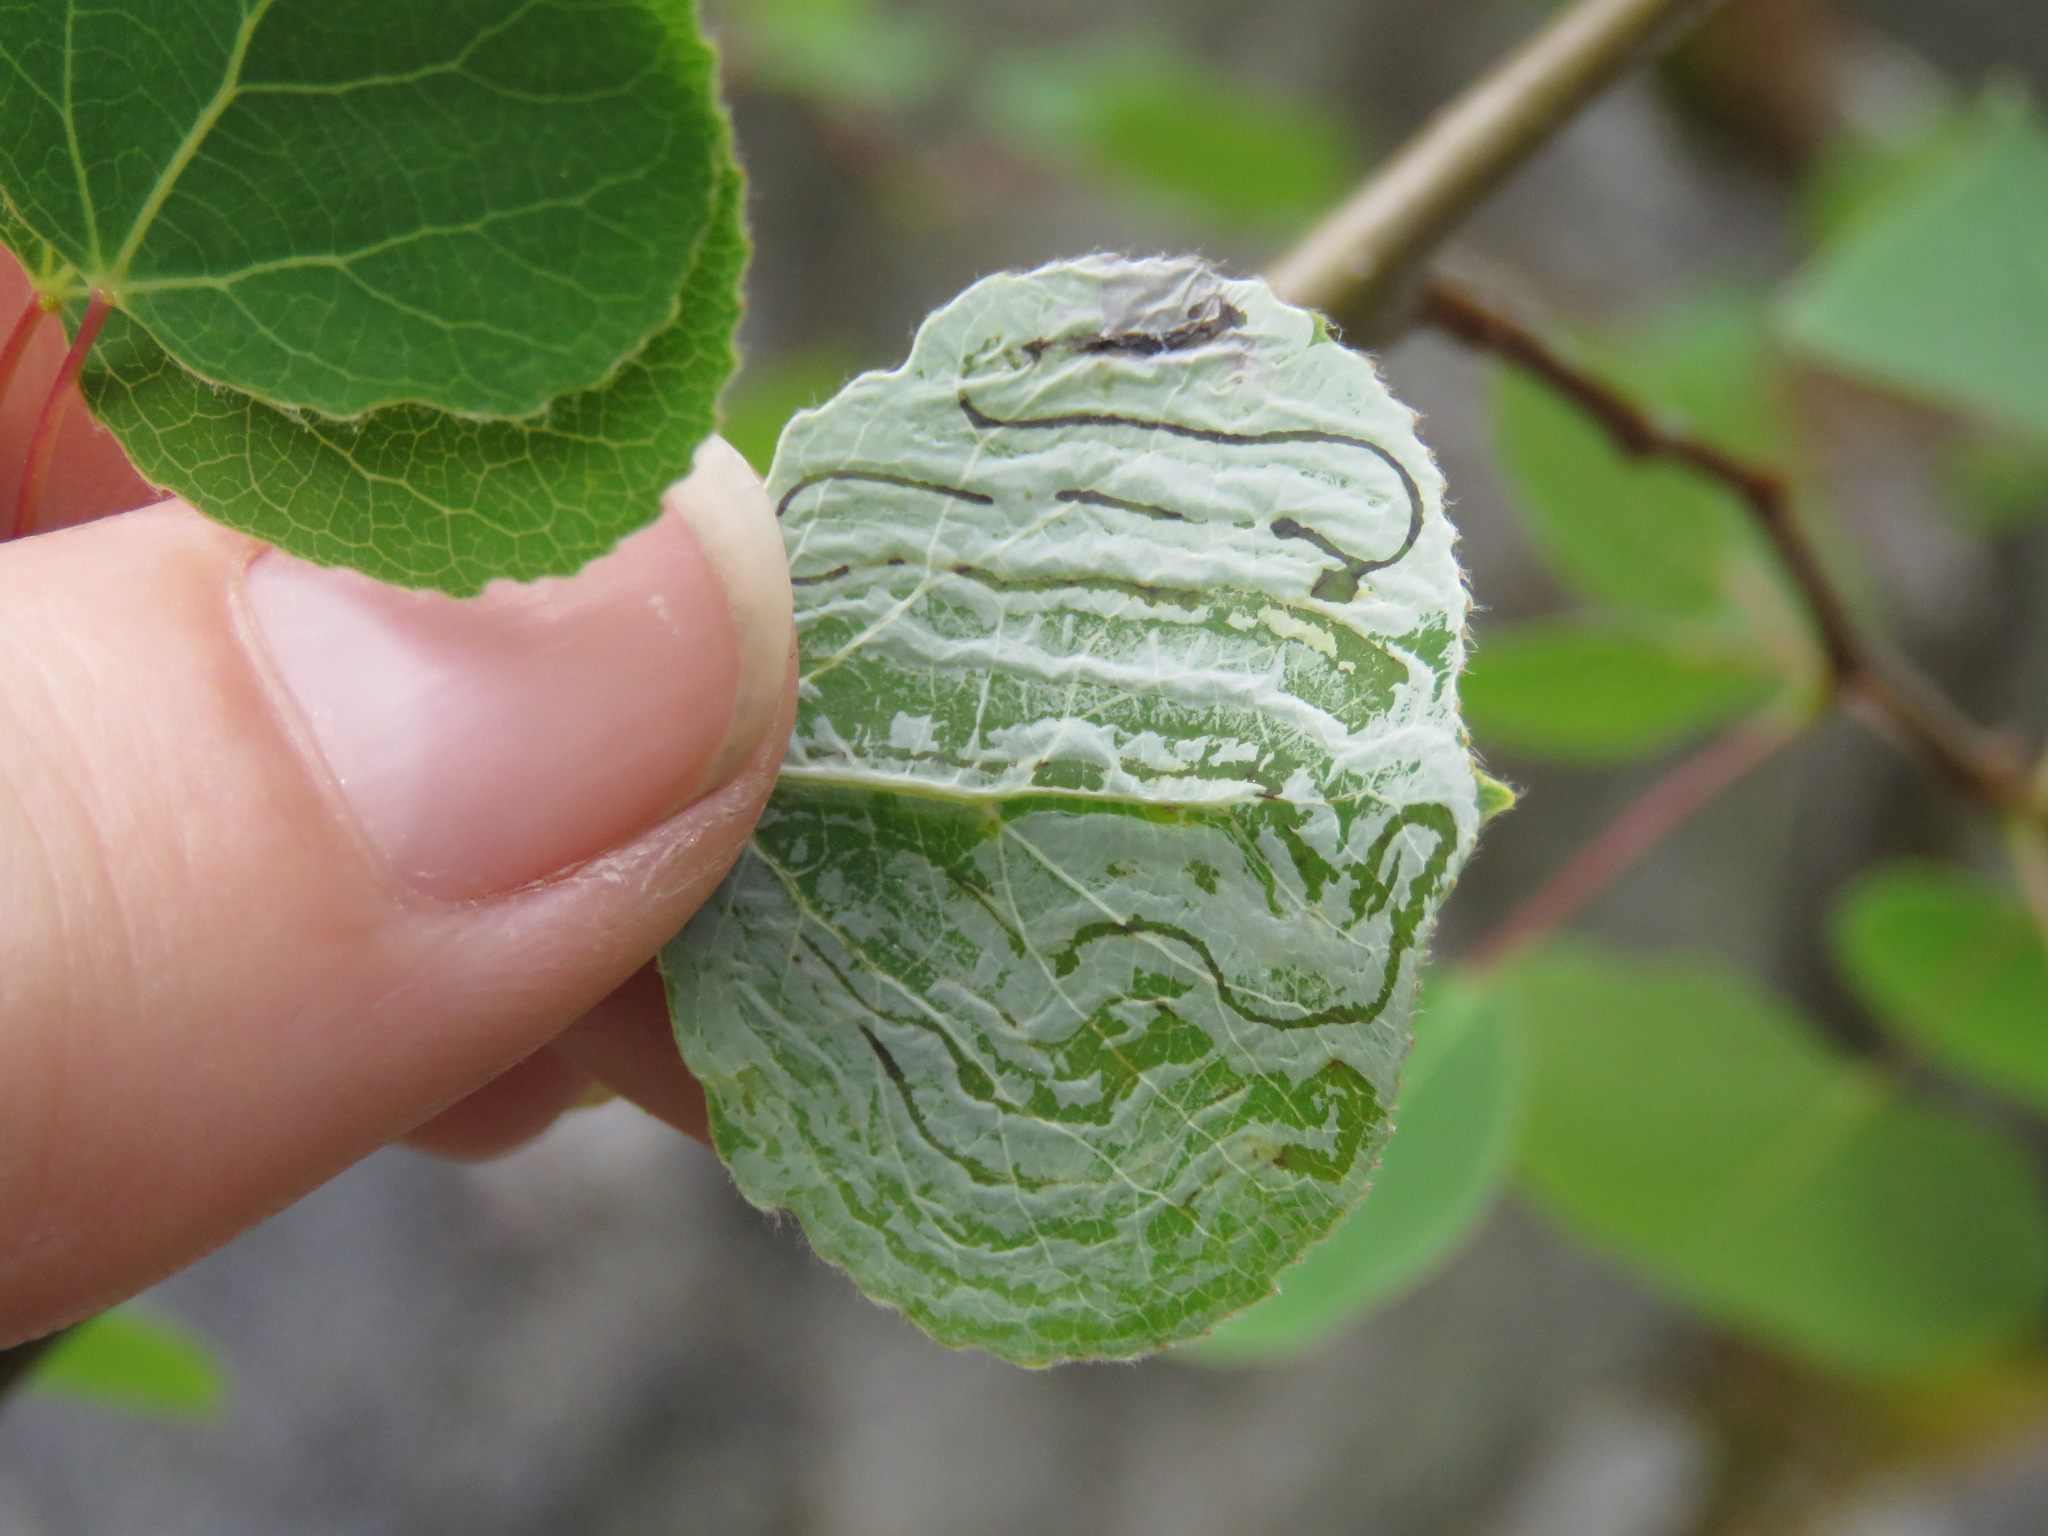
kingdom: Animalia
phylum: Arthropoda
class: Insecta
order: Lepidoptera
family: Gracillariidae
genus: Phyllocnistis
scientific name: Phyllocnistis populiella
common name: Aspen serpentine leafminer moth
